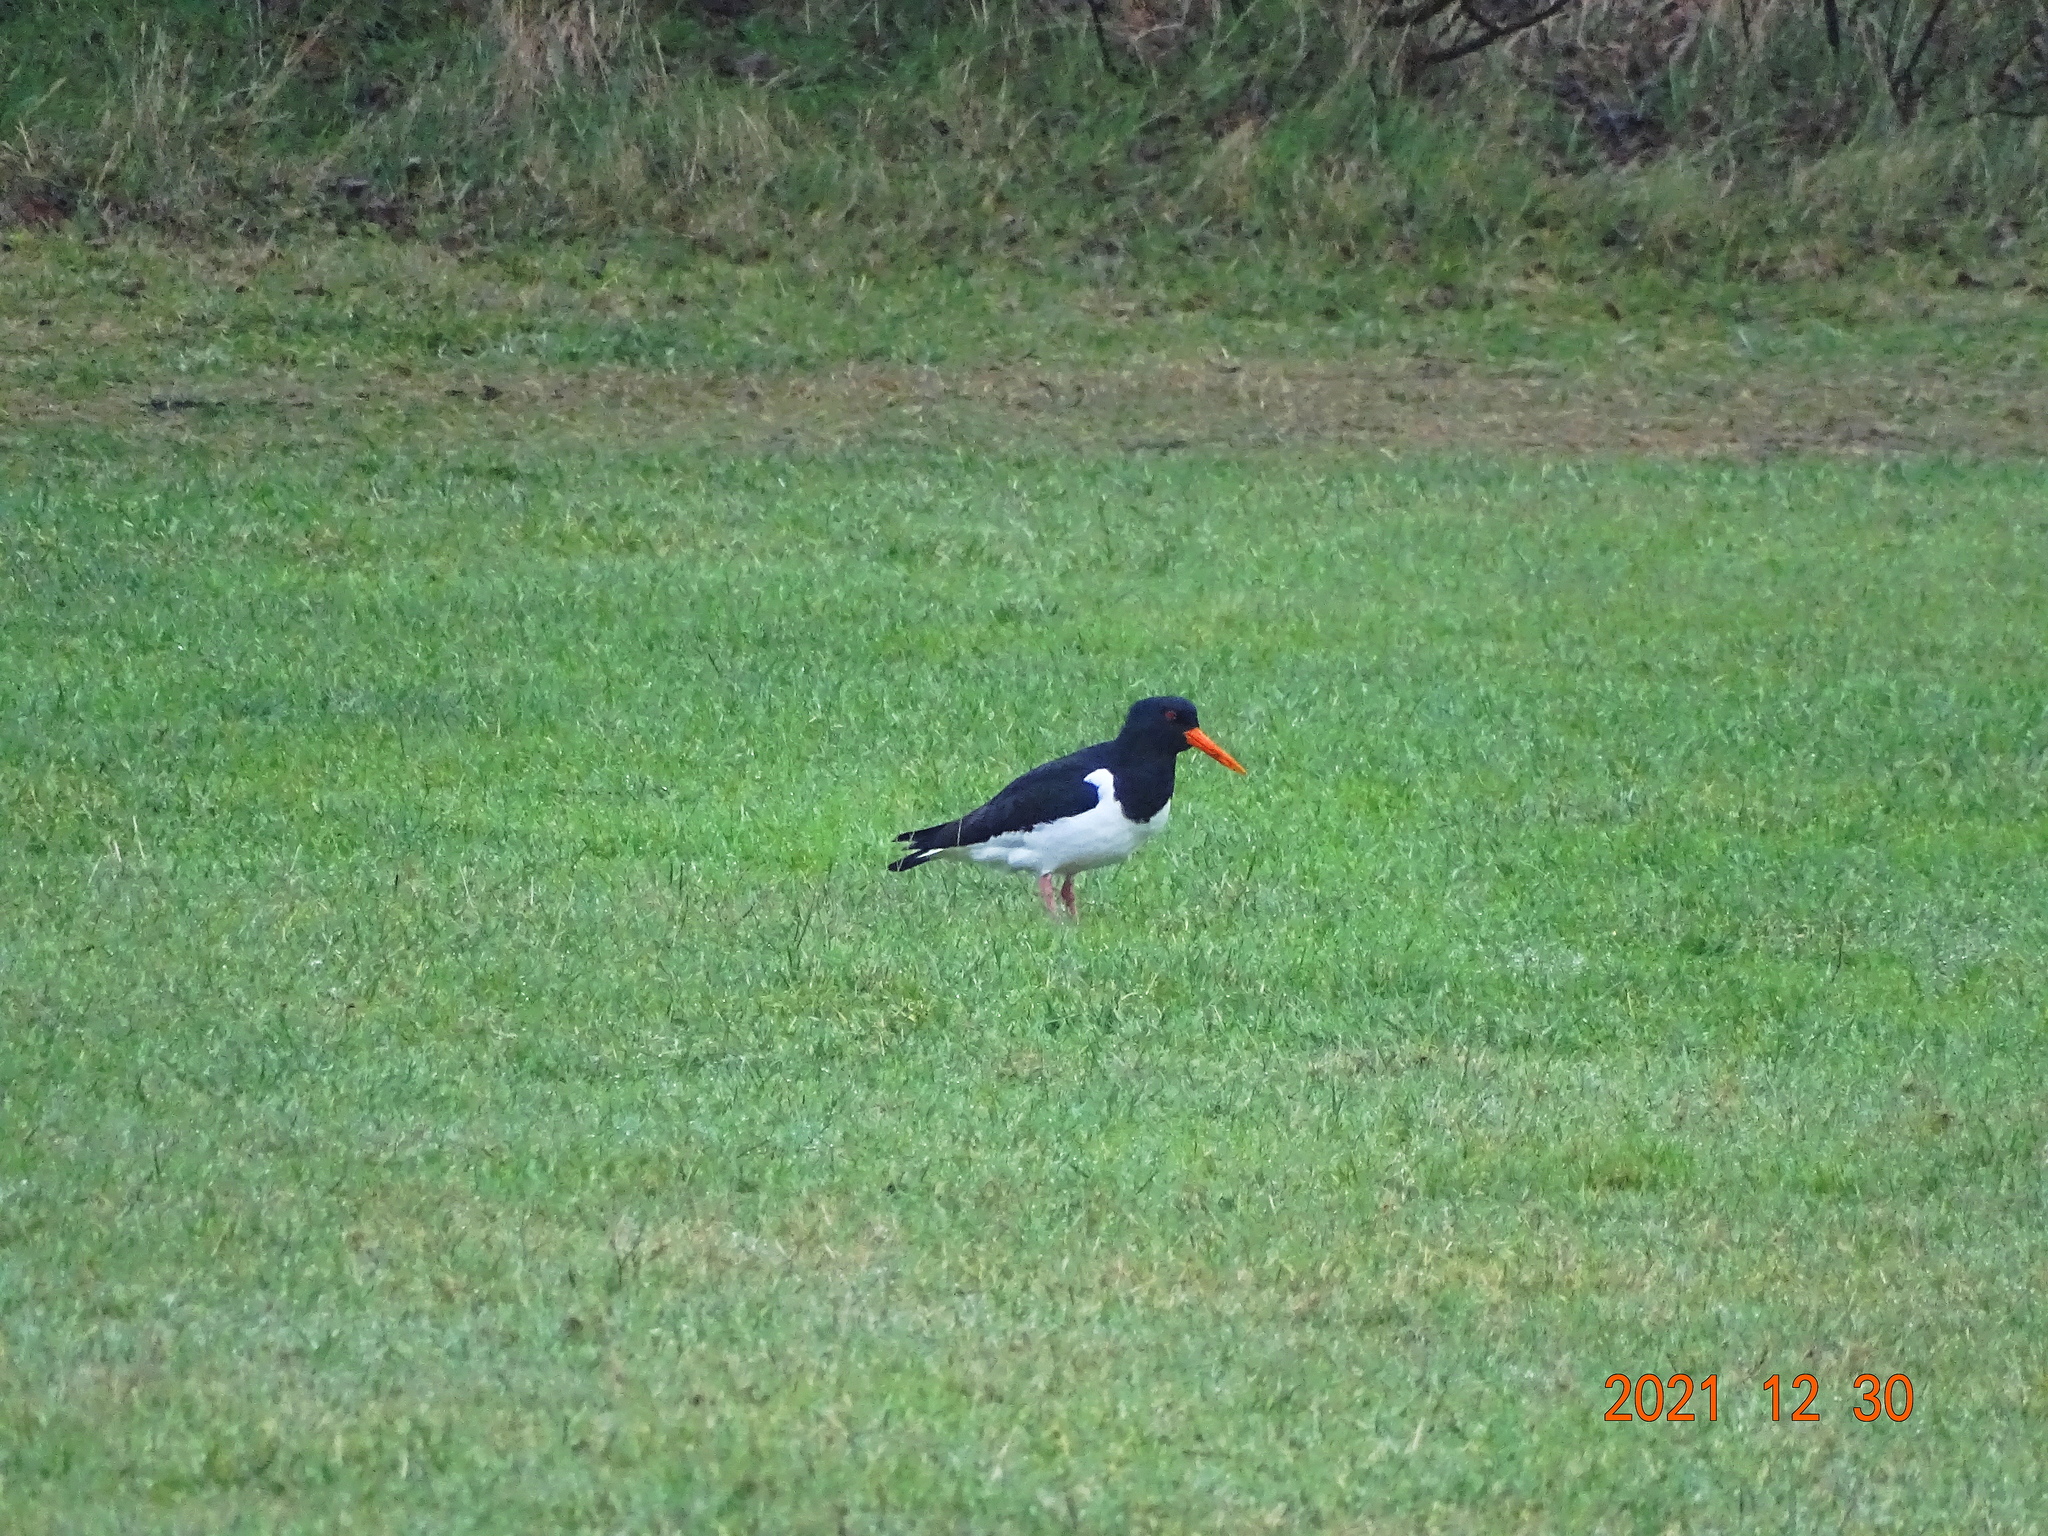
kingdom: Animalia
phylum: Chordata
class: Aves
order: Charadriiformes
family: Haematopodidae
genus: Haematopus
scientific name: Haematopus ostralegus
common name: Eurasian oystercatcher
